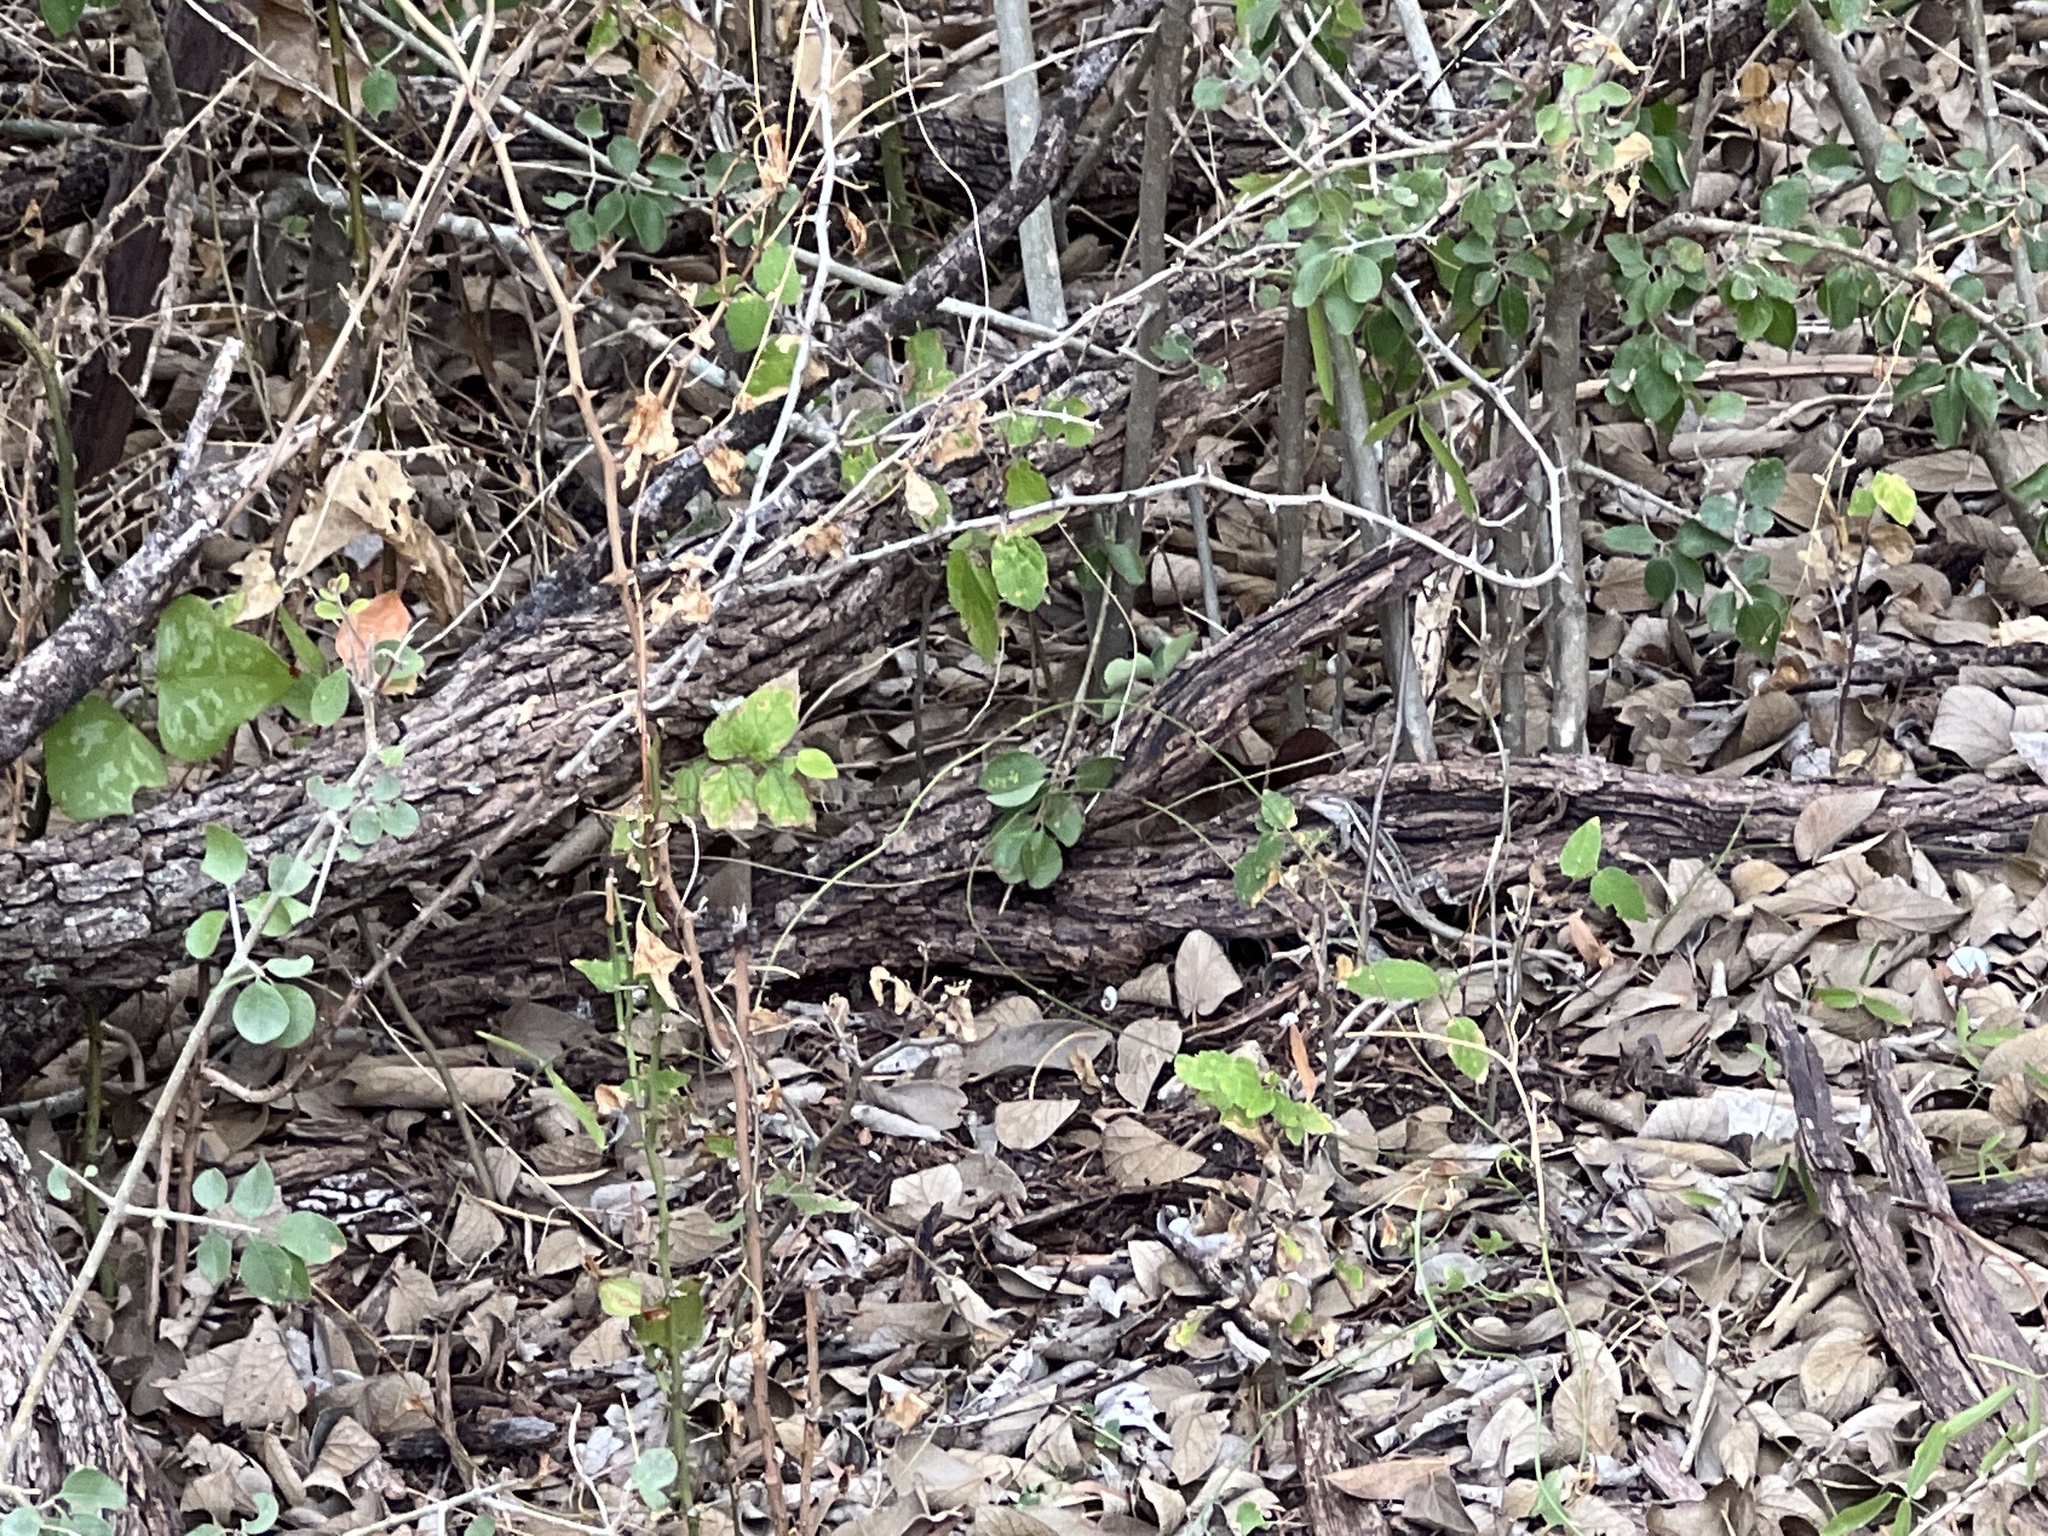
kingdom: Animalia
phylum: Chordata
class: Squamata
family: Phrynosomatidae
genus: Sceloporus
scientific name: Sceloporus variabilis
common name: Rosebelly lizard
